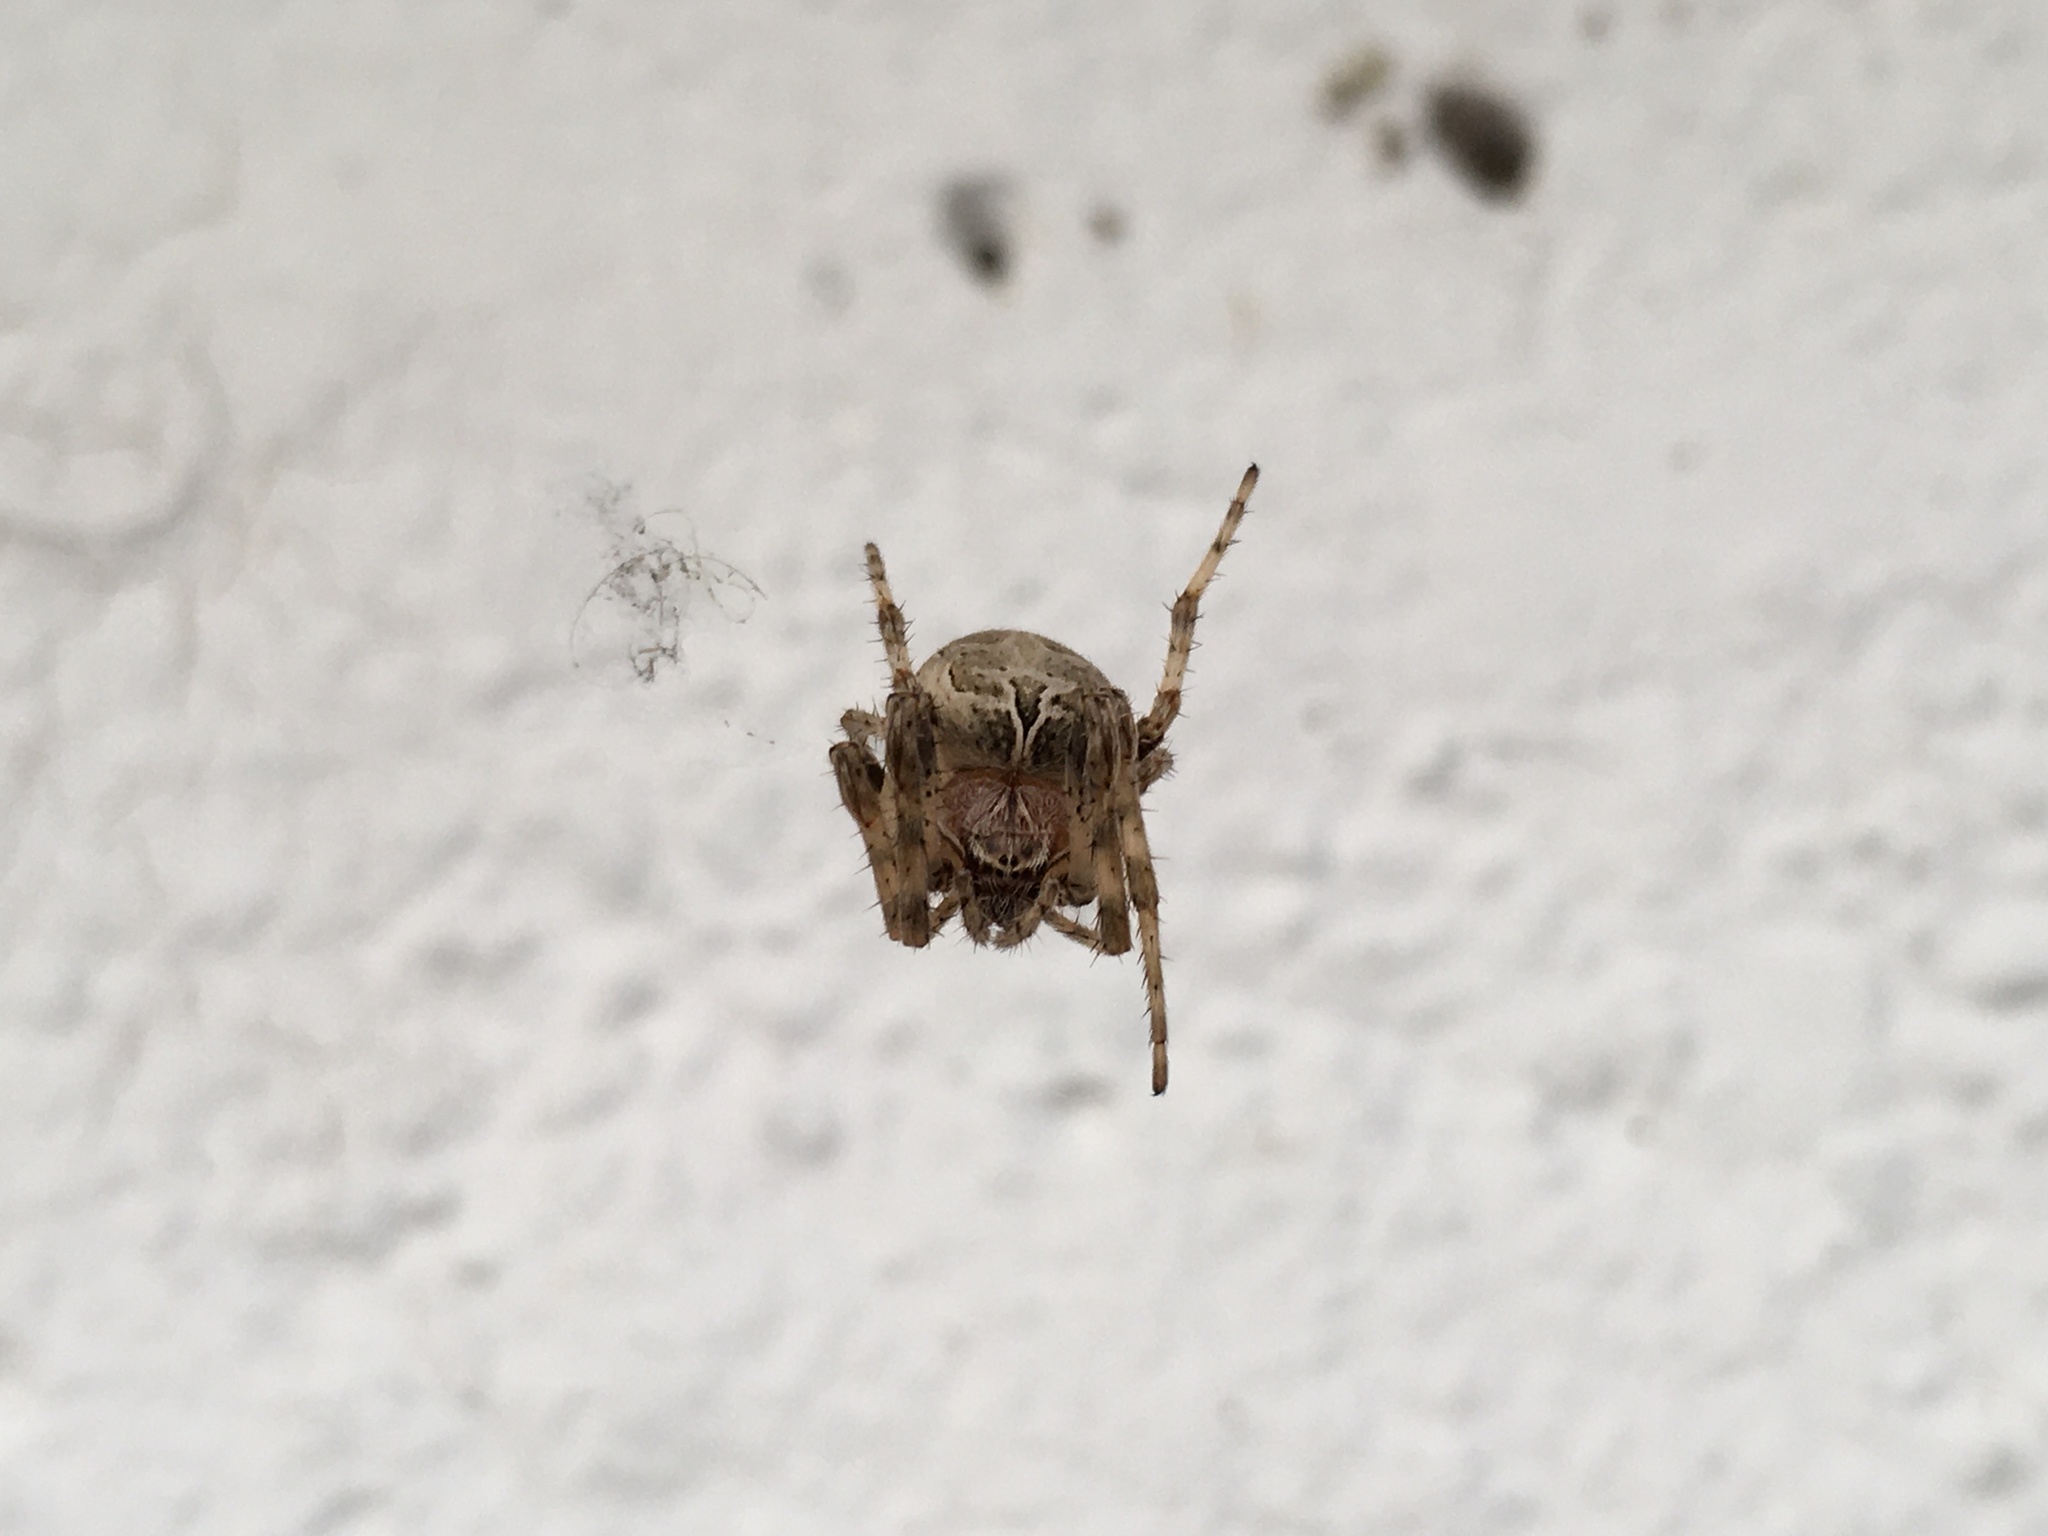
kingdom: Animalia
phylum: Arthropoda
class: Arachnida
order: Araneae
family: Araneidae
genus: Larinioides
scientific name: Larinioides sclopetarius
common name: Bridge orbweaver
